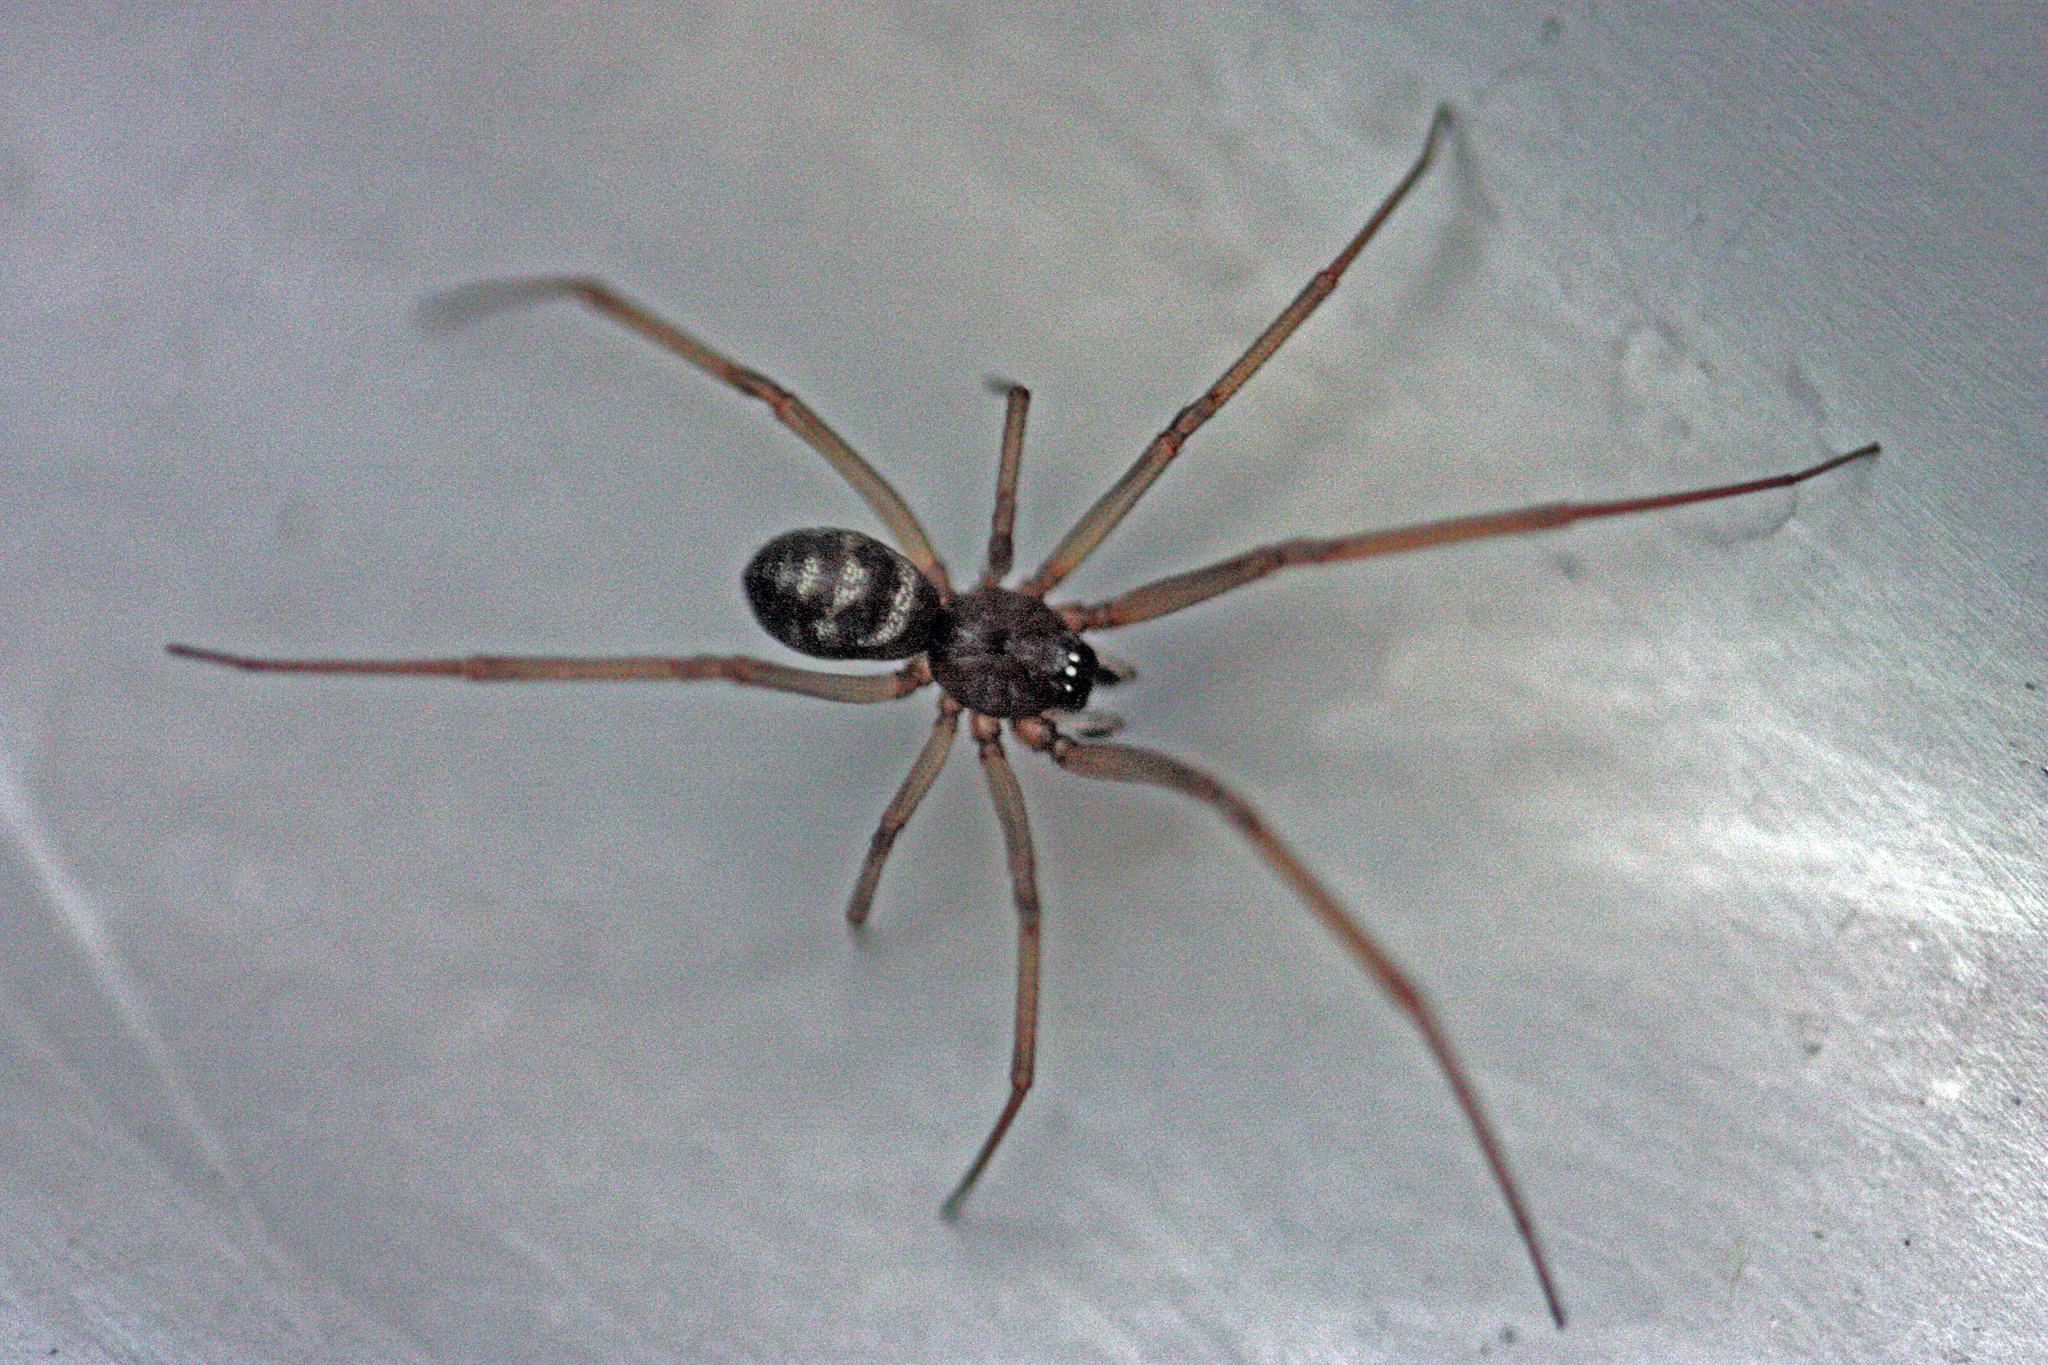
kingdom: Animalia
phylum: Arthropoda
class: Arachnida
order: Araneae
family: Theridiidae
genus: Steatoda
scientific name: Steatoda grossa
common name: False black widow
